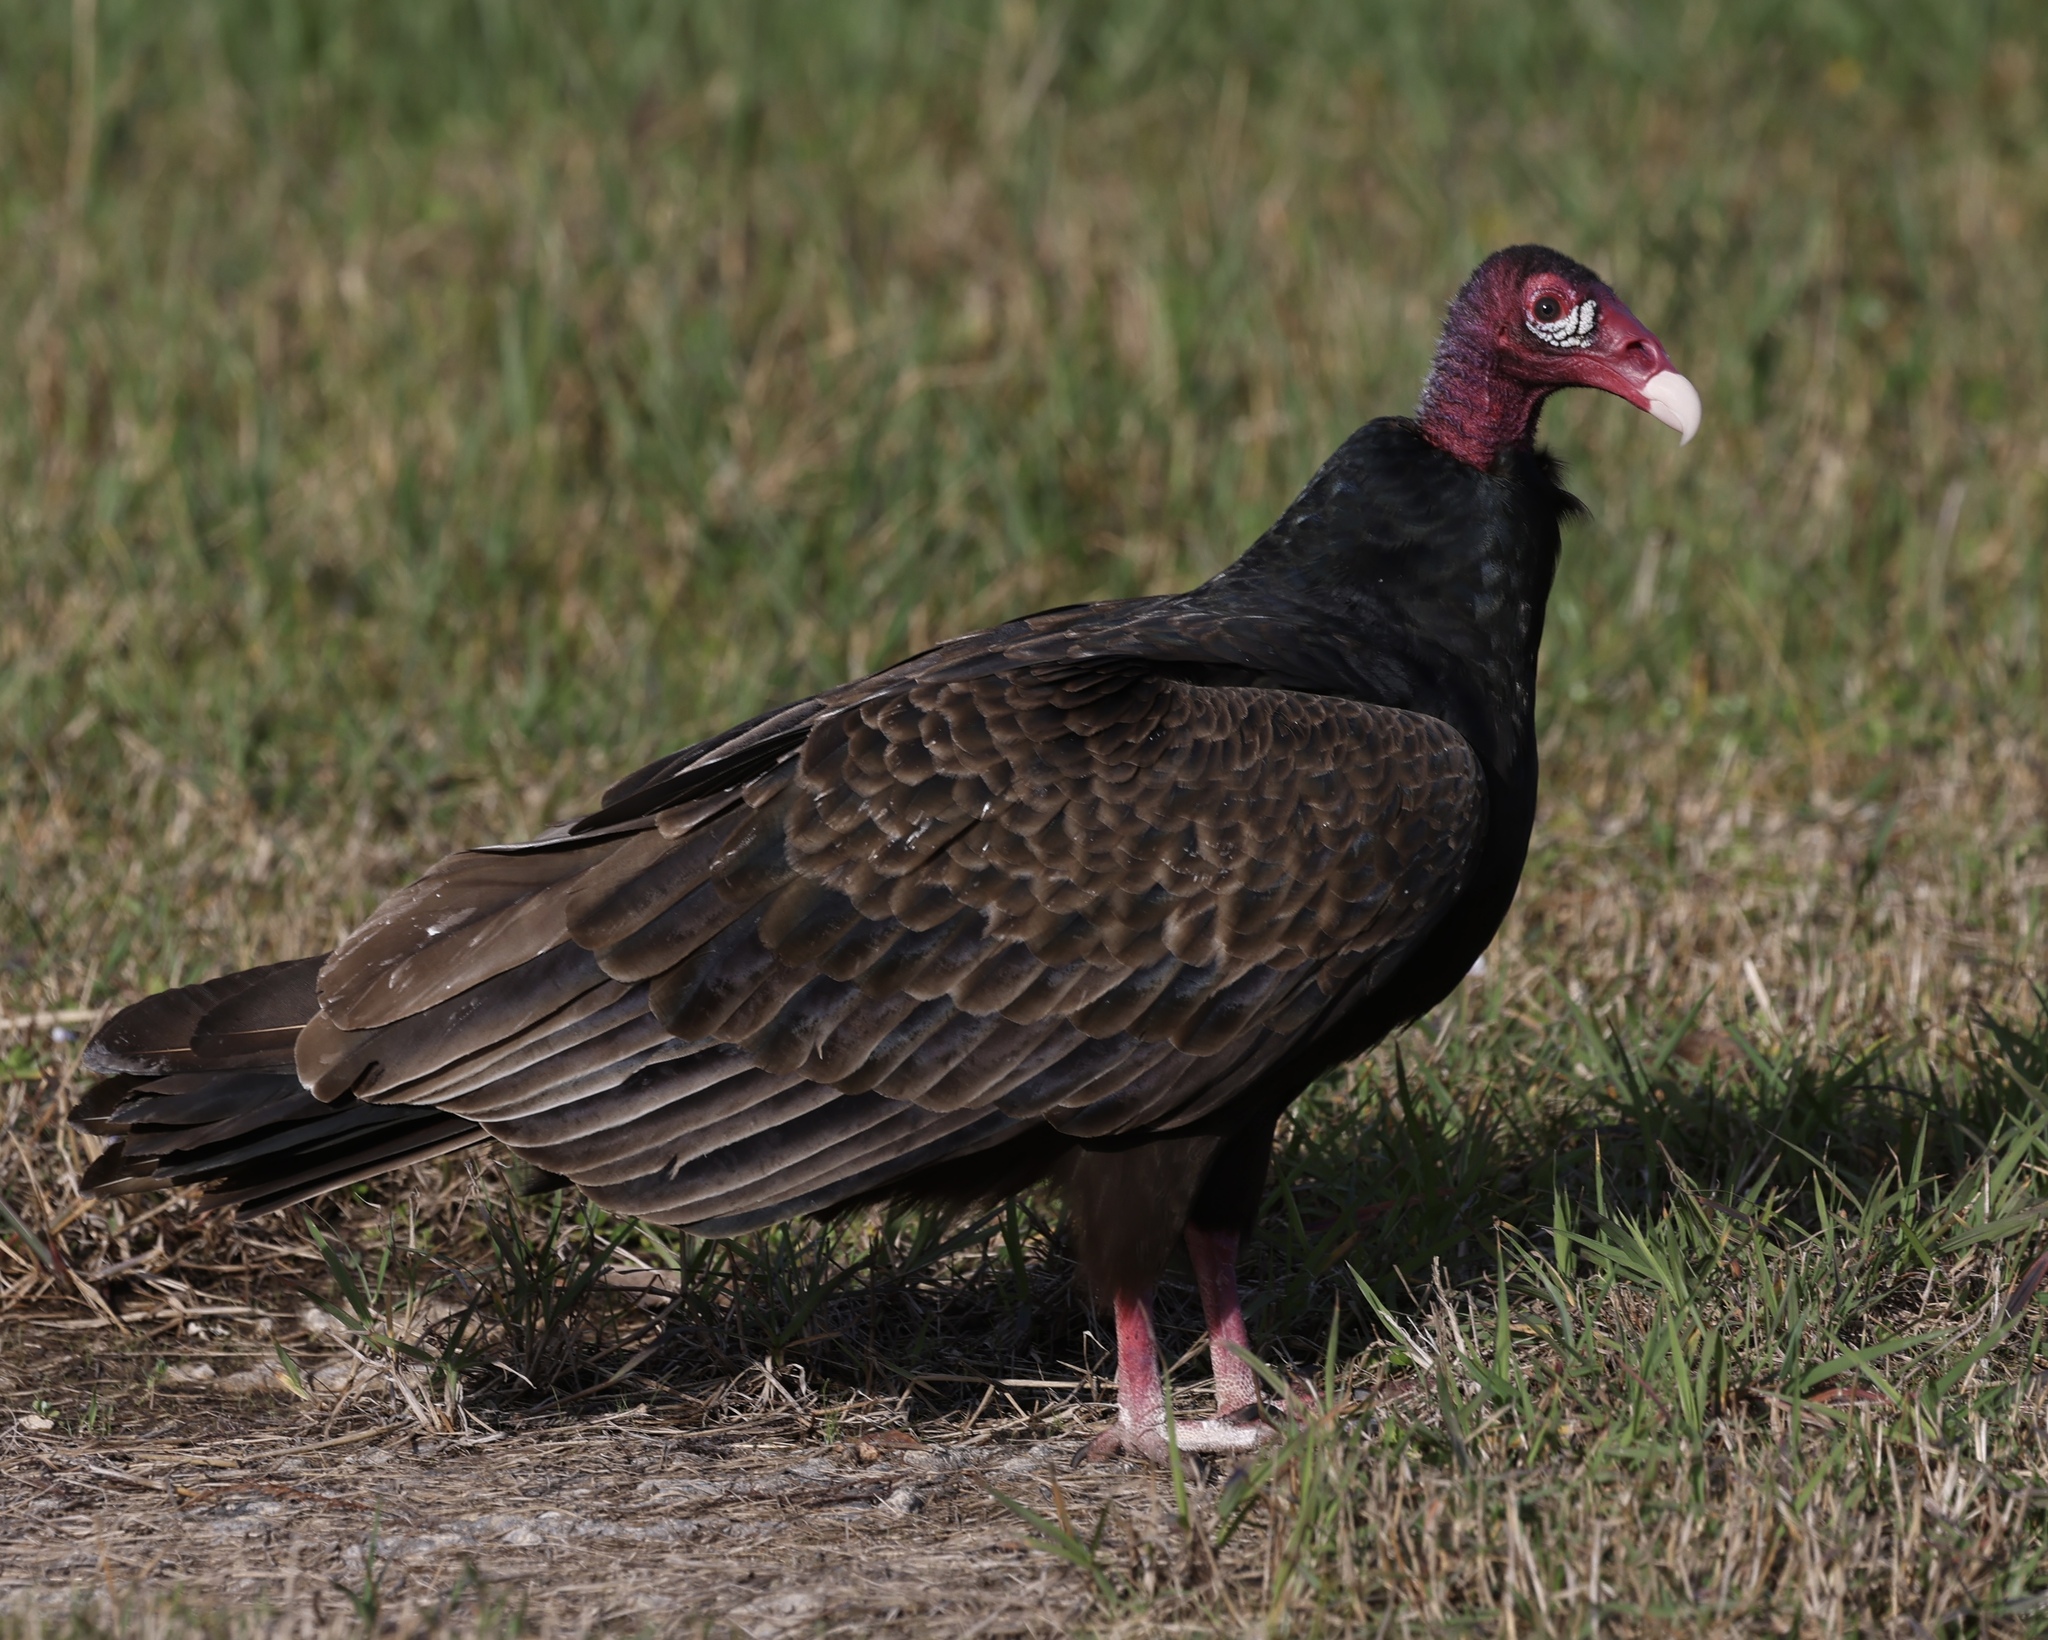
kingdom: Animalia
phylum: Chordata
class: Aves
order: Accipitriformes
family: Cathartidae
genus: Cathartes
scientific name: Cathartes aura
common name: Turkey vulture
